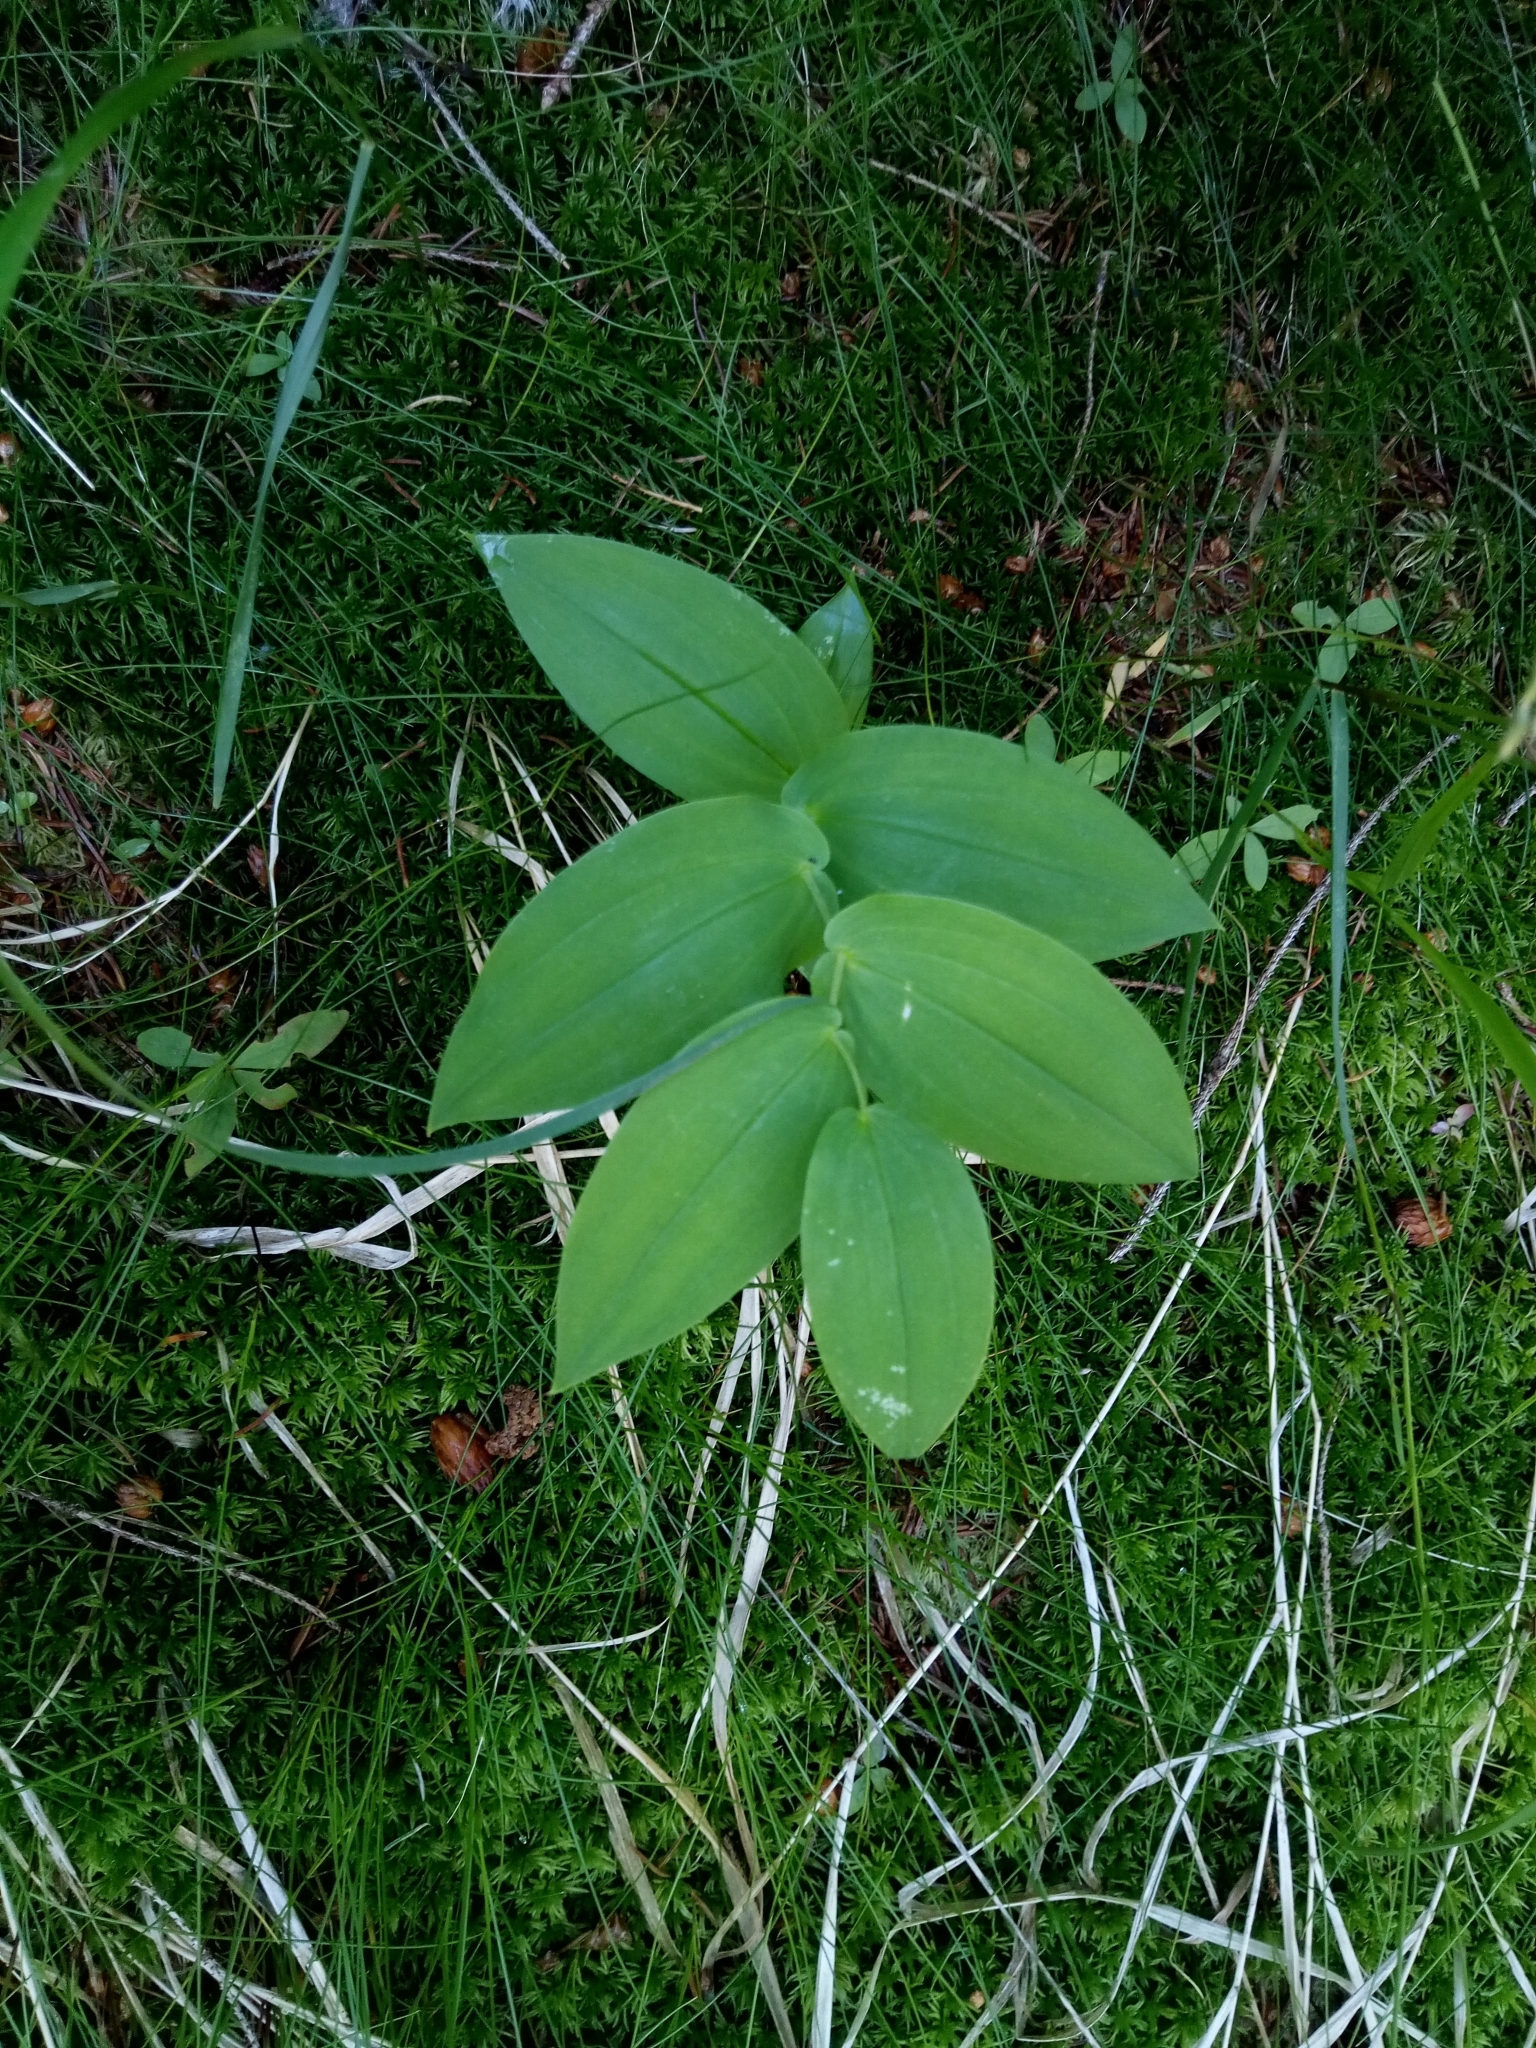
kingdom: Plantae
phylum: Tracheophyta
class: Liliopsida
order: Liliales
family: Liliaceae
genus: Streptopus
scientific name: Streptopus amplexifolius
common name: Clasp twisted stalk
